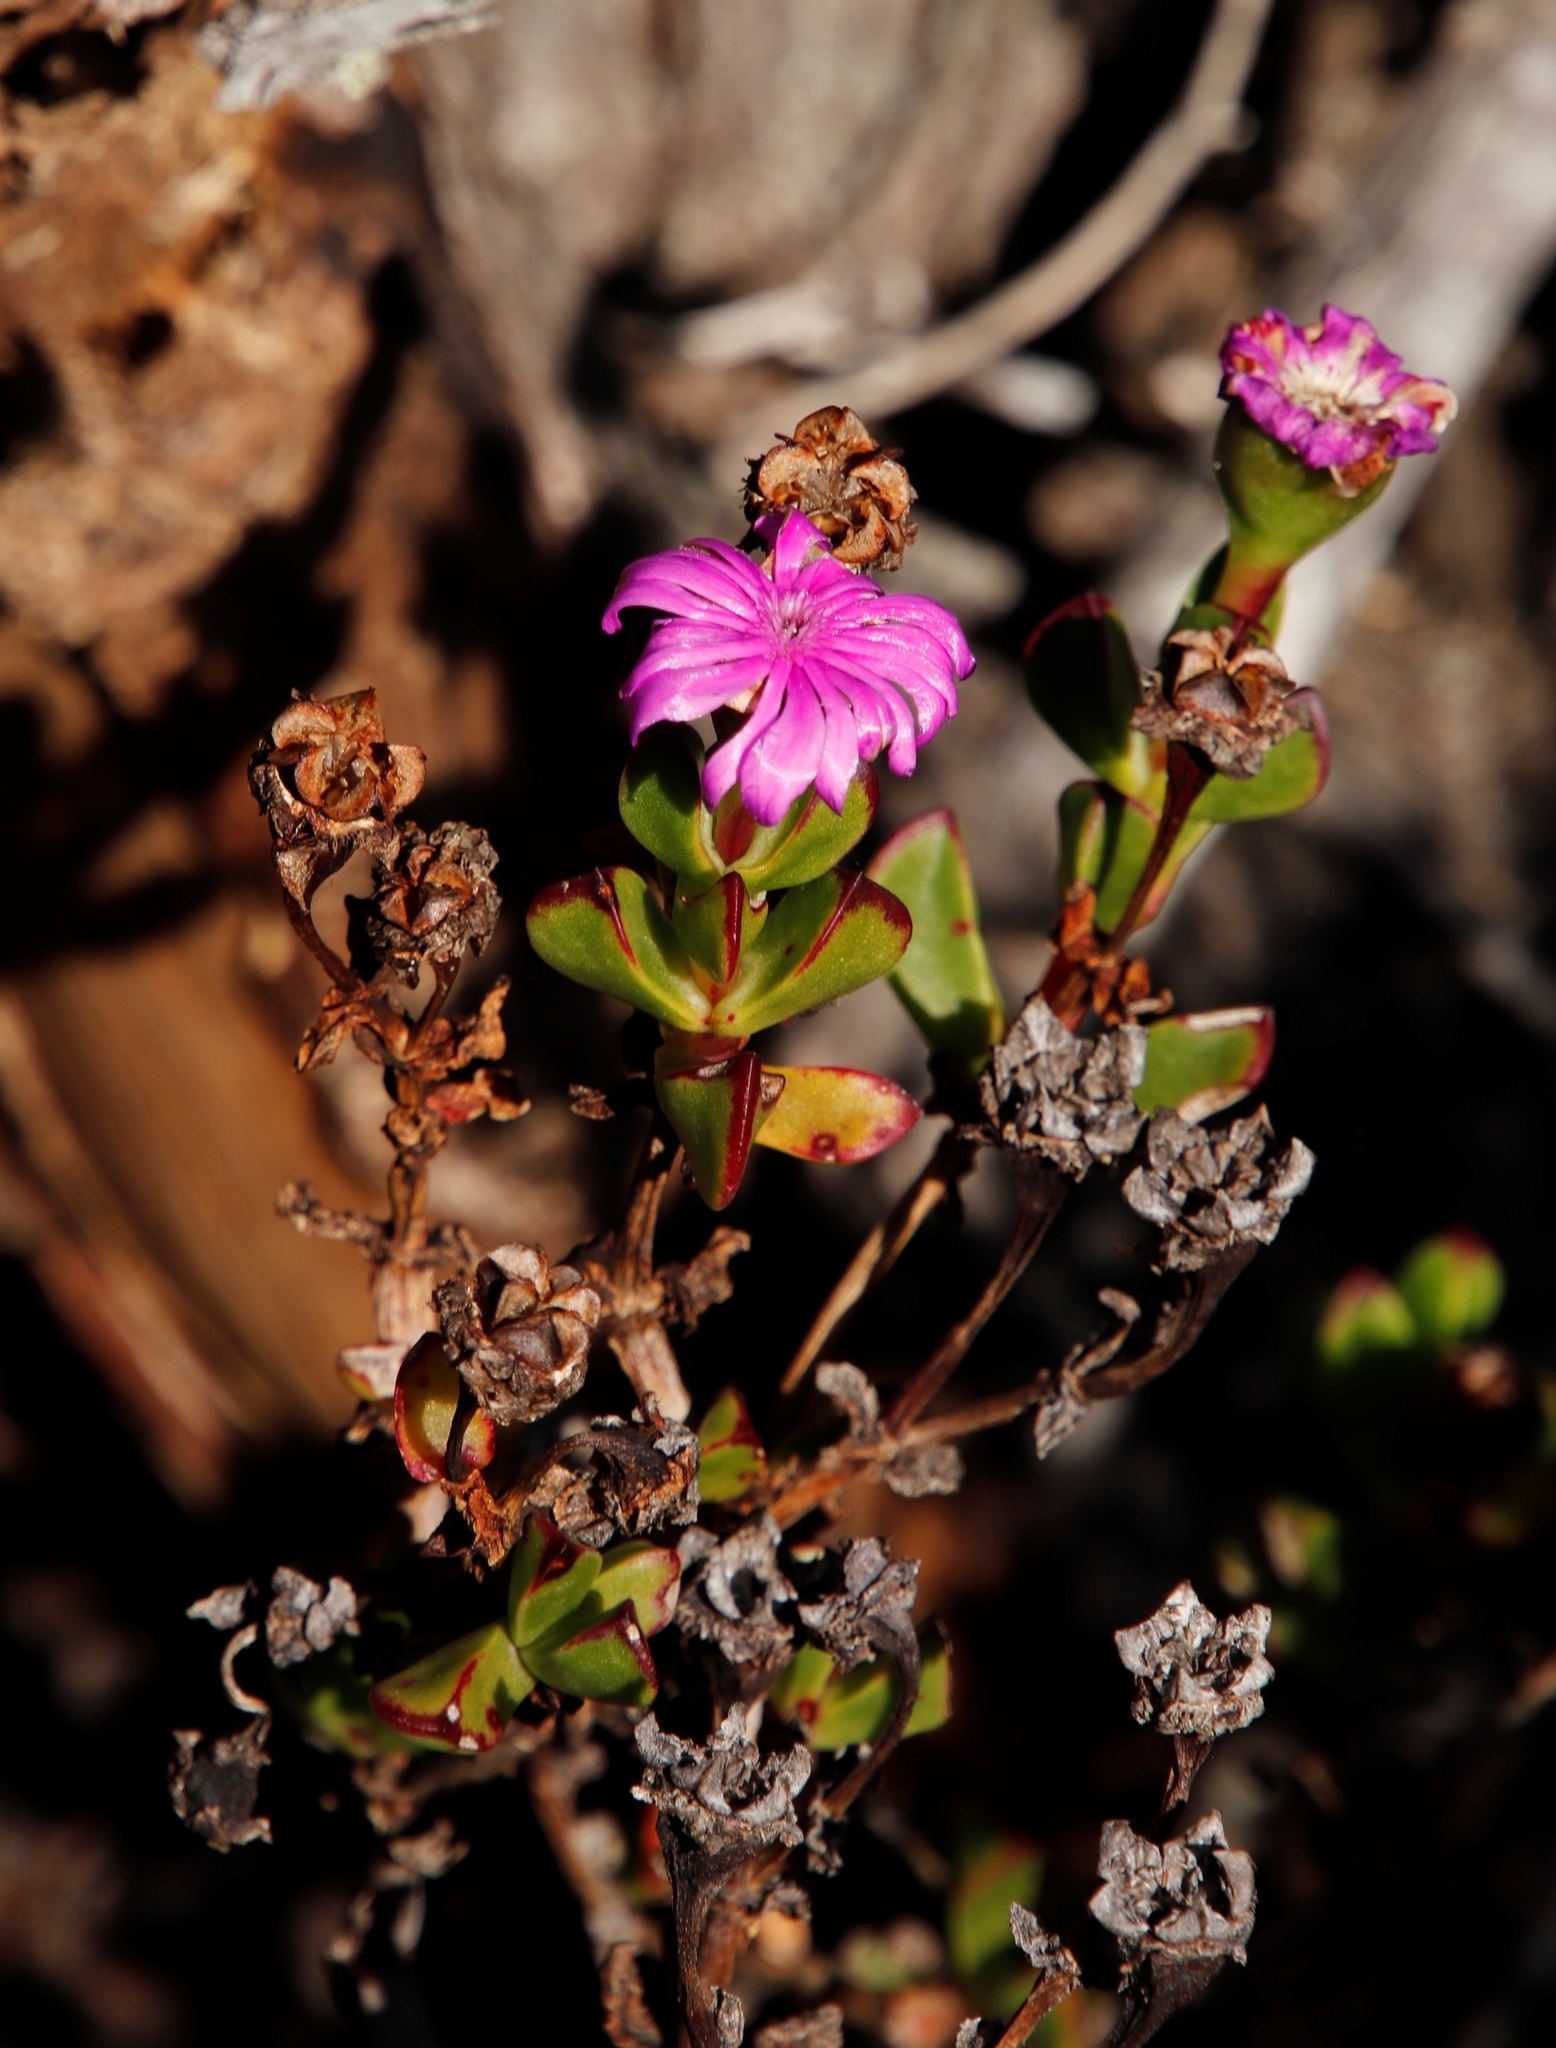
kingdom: Plantae
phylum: Tracheophyta
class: Magnoliopsida
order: Caryophyllales
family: Aizoaceae
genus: Erepsia
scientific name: Erepsia inclaudens
